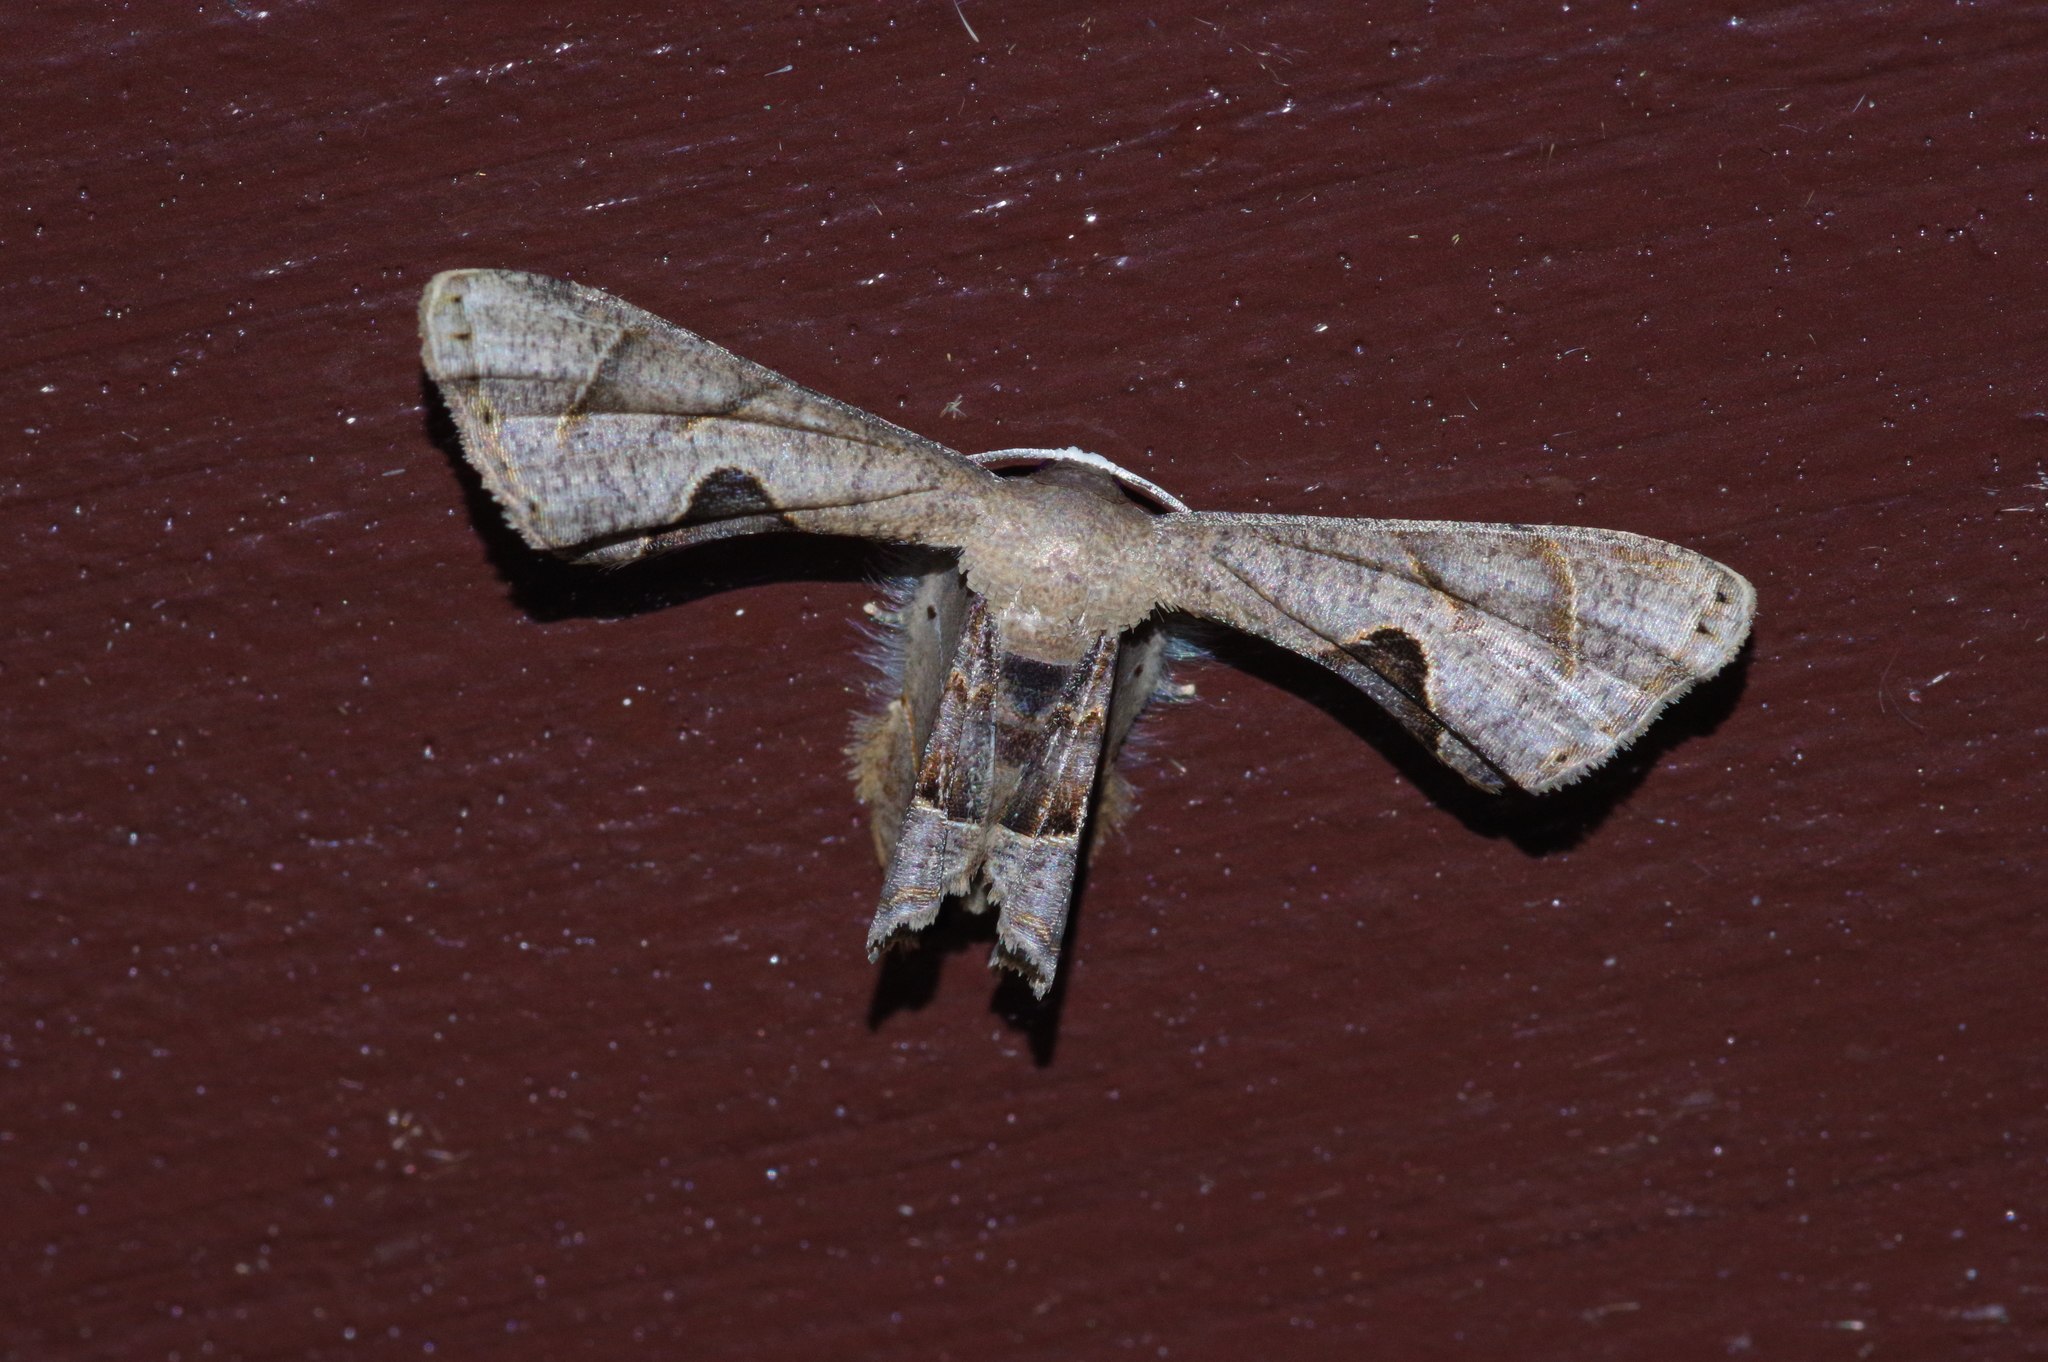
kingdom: Animalia
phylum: Arthropoda
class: Insecta
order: Lepidoptera
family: Uraniidae
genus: Phazaca
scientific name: Phazaca kosemponicola
